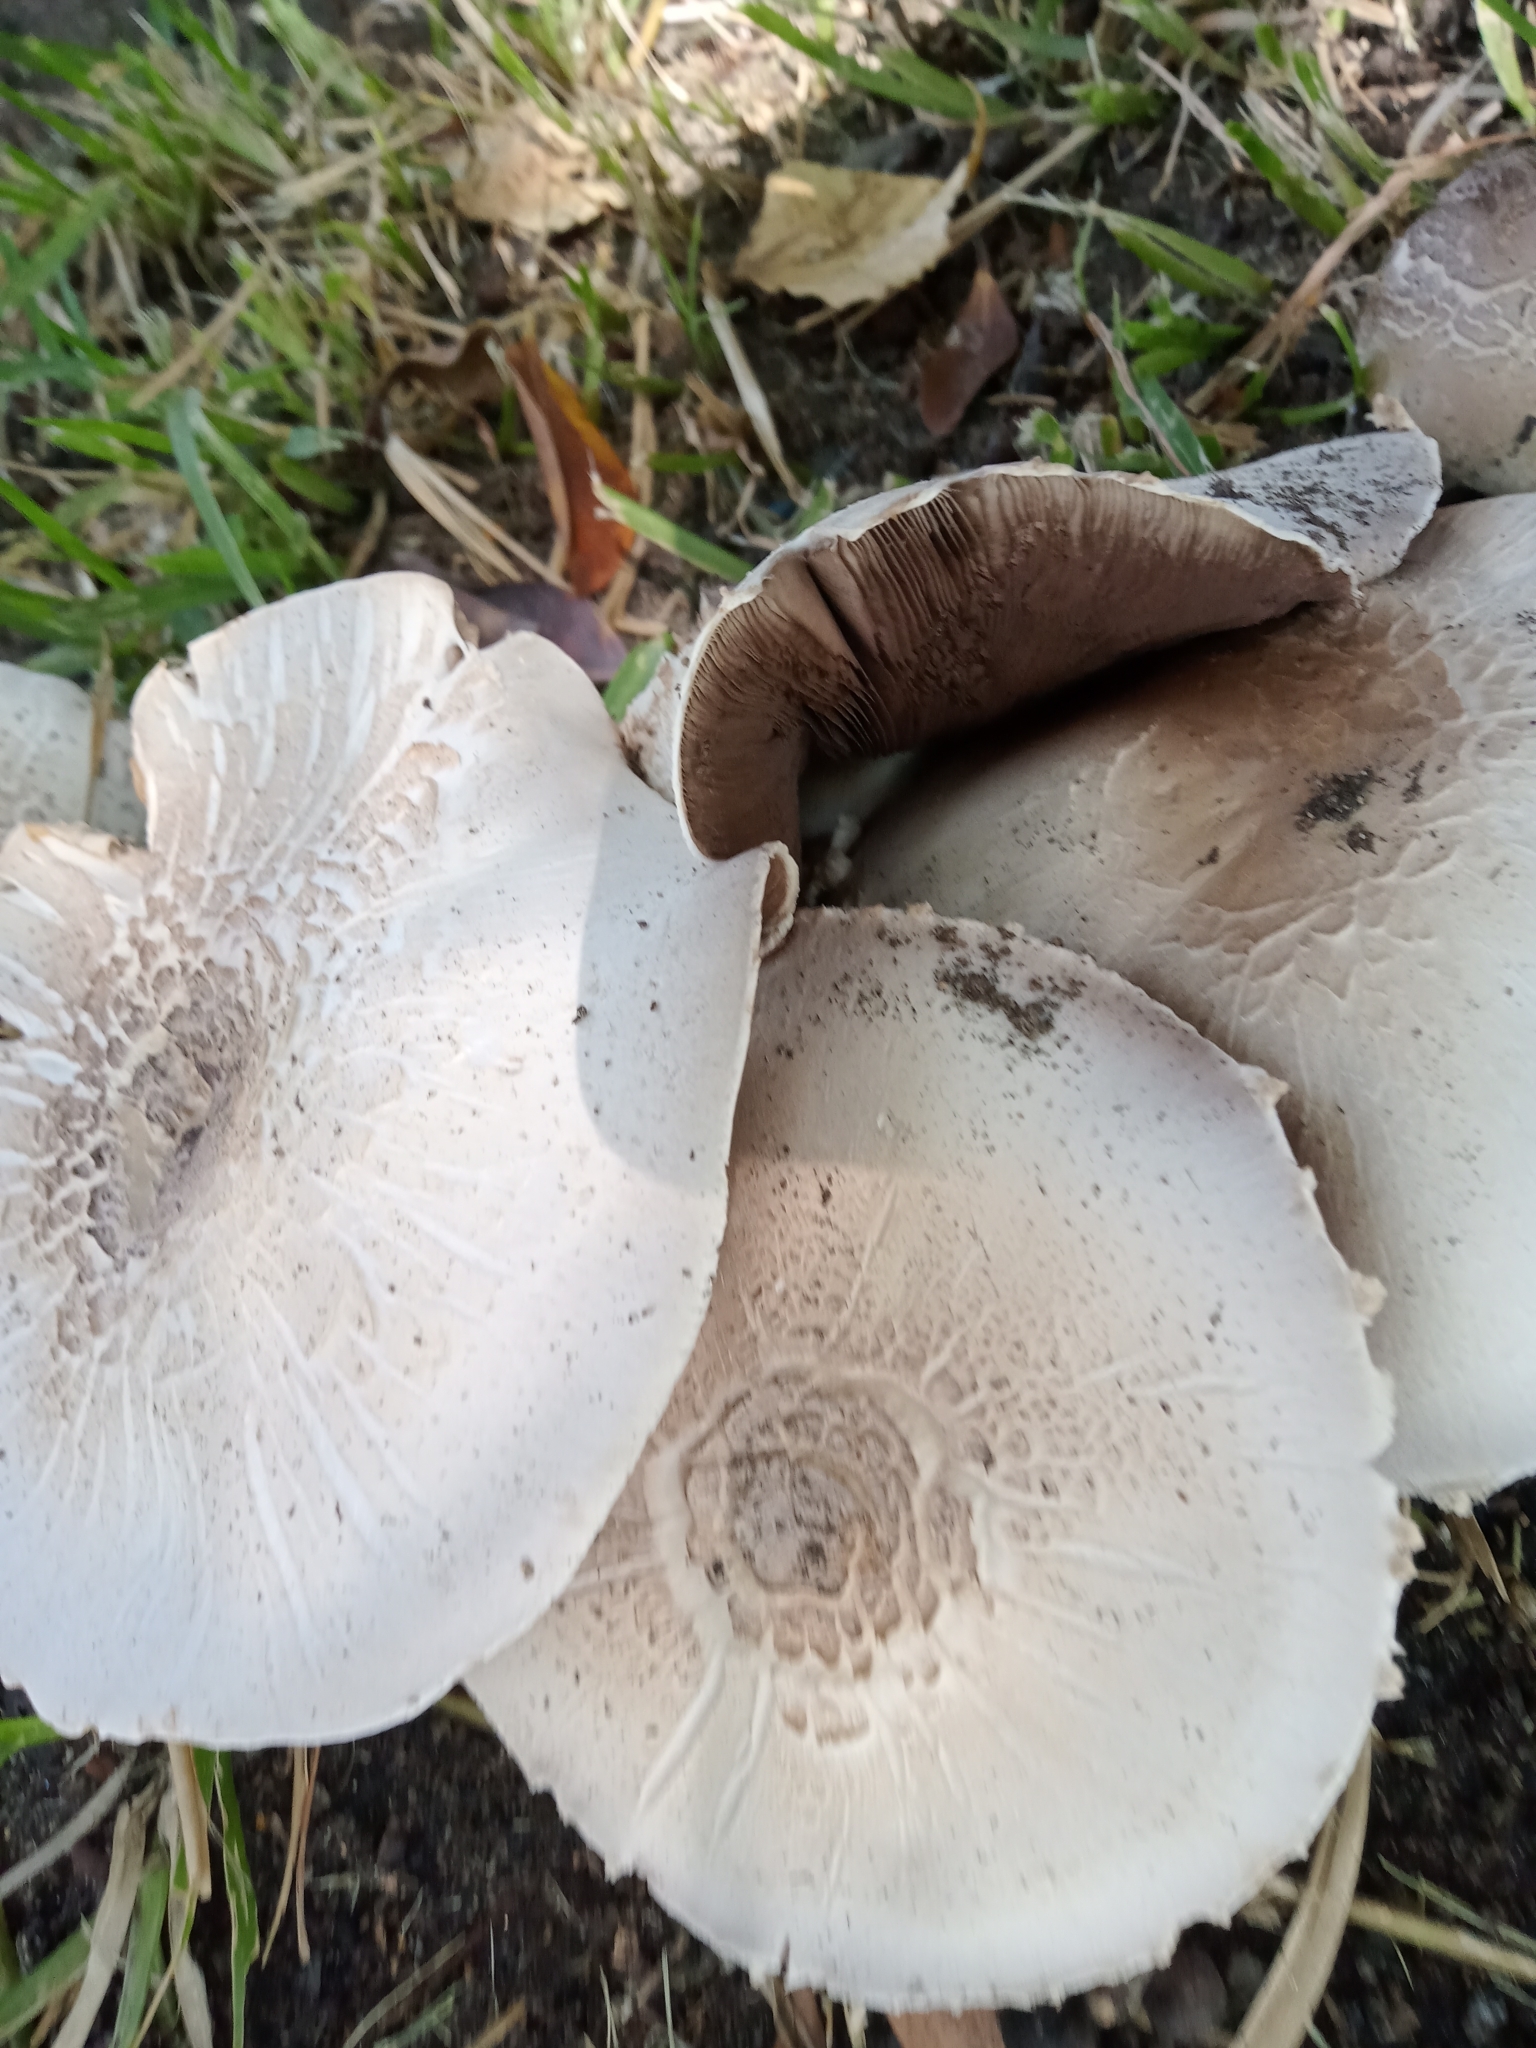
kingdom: Fungi
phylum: Basidiomycota
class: Agaricomycetes
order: Agaricales
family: Agaricaceae
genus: Agaricus
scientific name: Agaricus californicus
